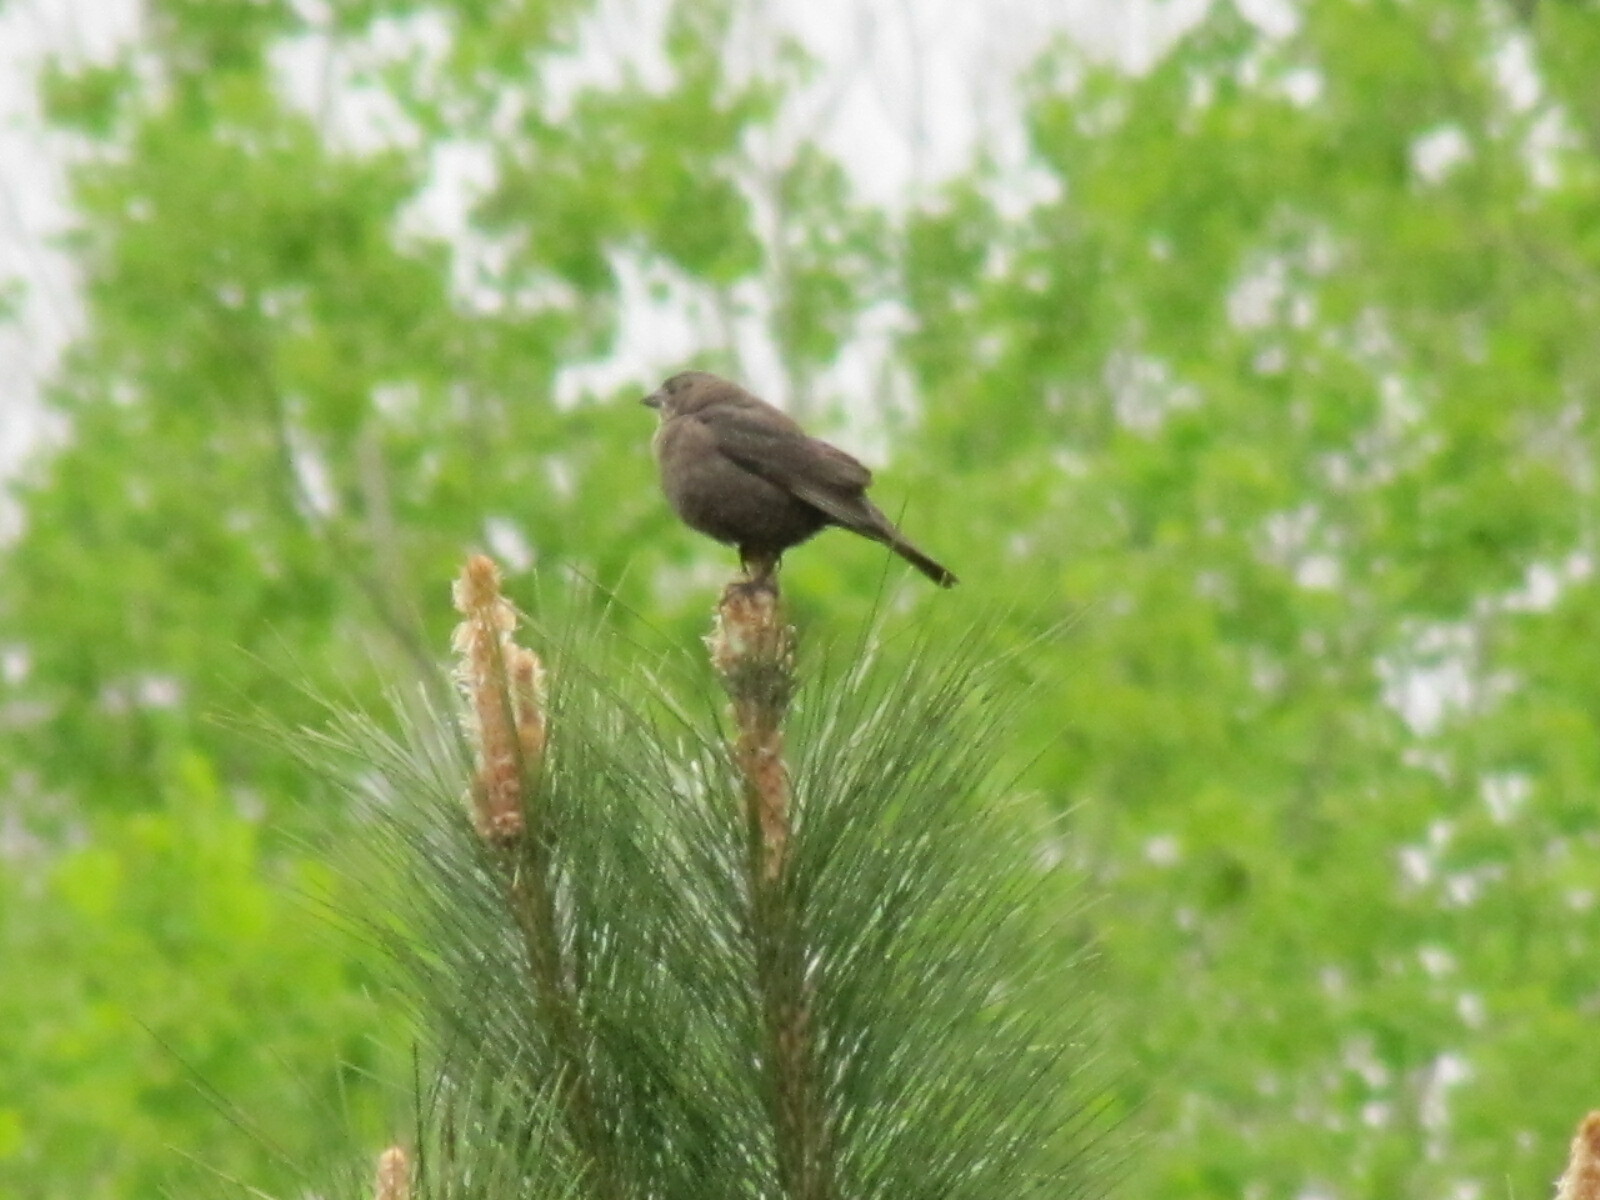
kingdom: Animalia
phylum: Chordata
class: Aves
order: Passeriformes
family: Icteridae
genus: Molothrus
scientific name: Molothrus ater
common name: Brown-headed cowbird
